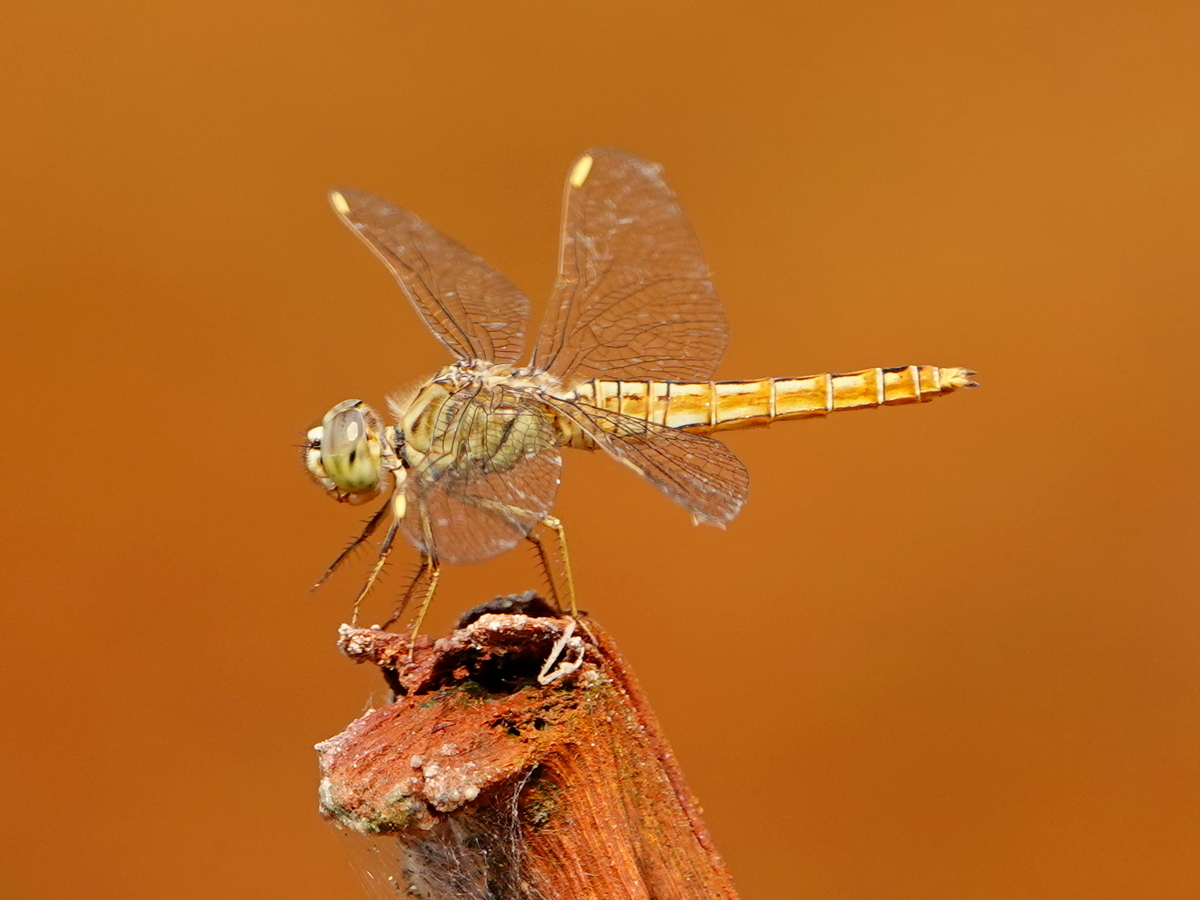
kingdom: Animalia
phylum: Arthropoda
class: Insecta
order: Odonata
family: Libellulidae
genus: Brachythemis
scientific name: Brachythemis contaminata
